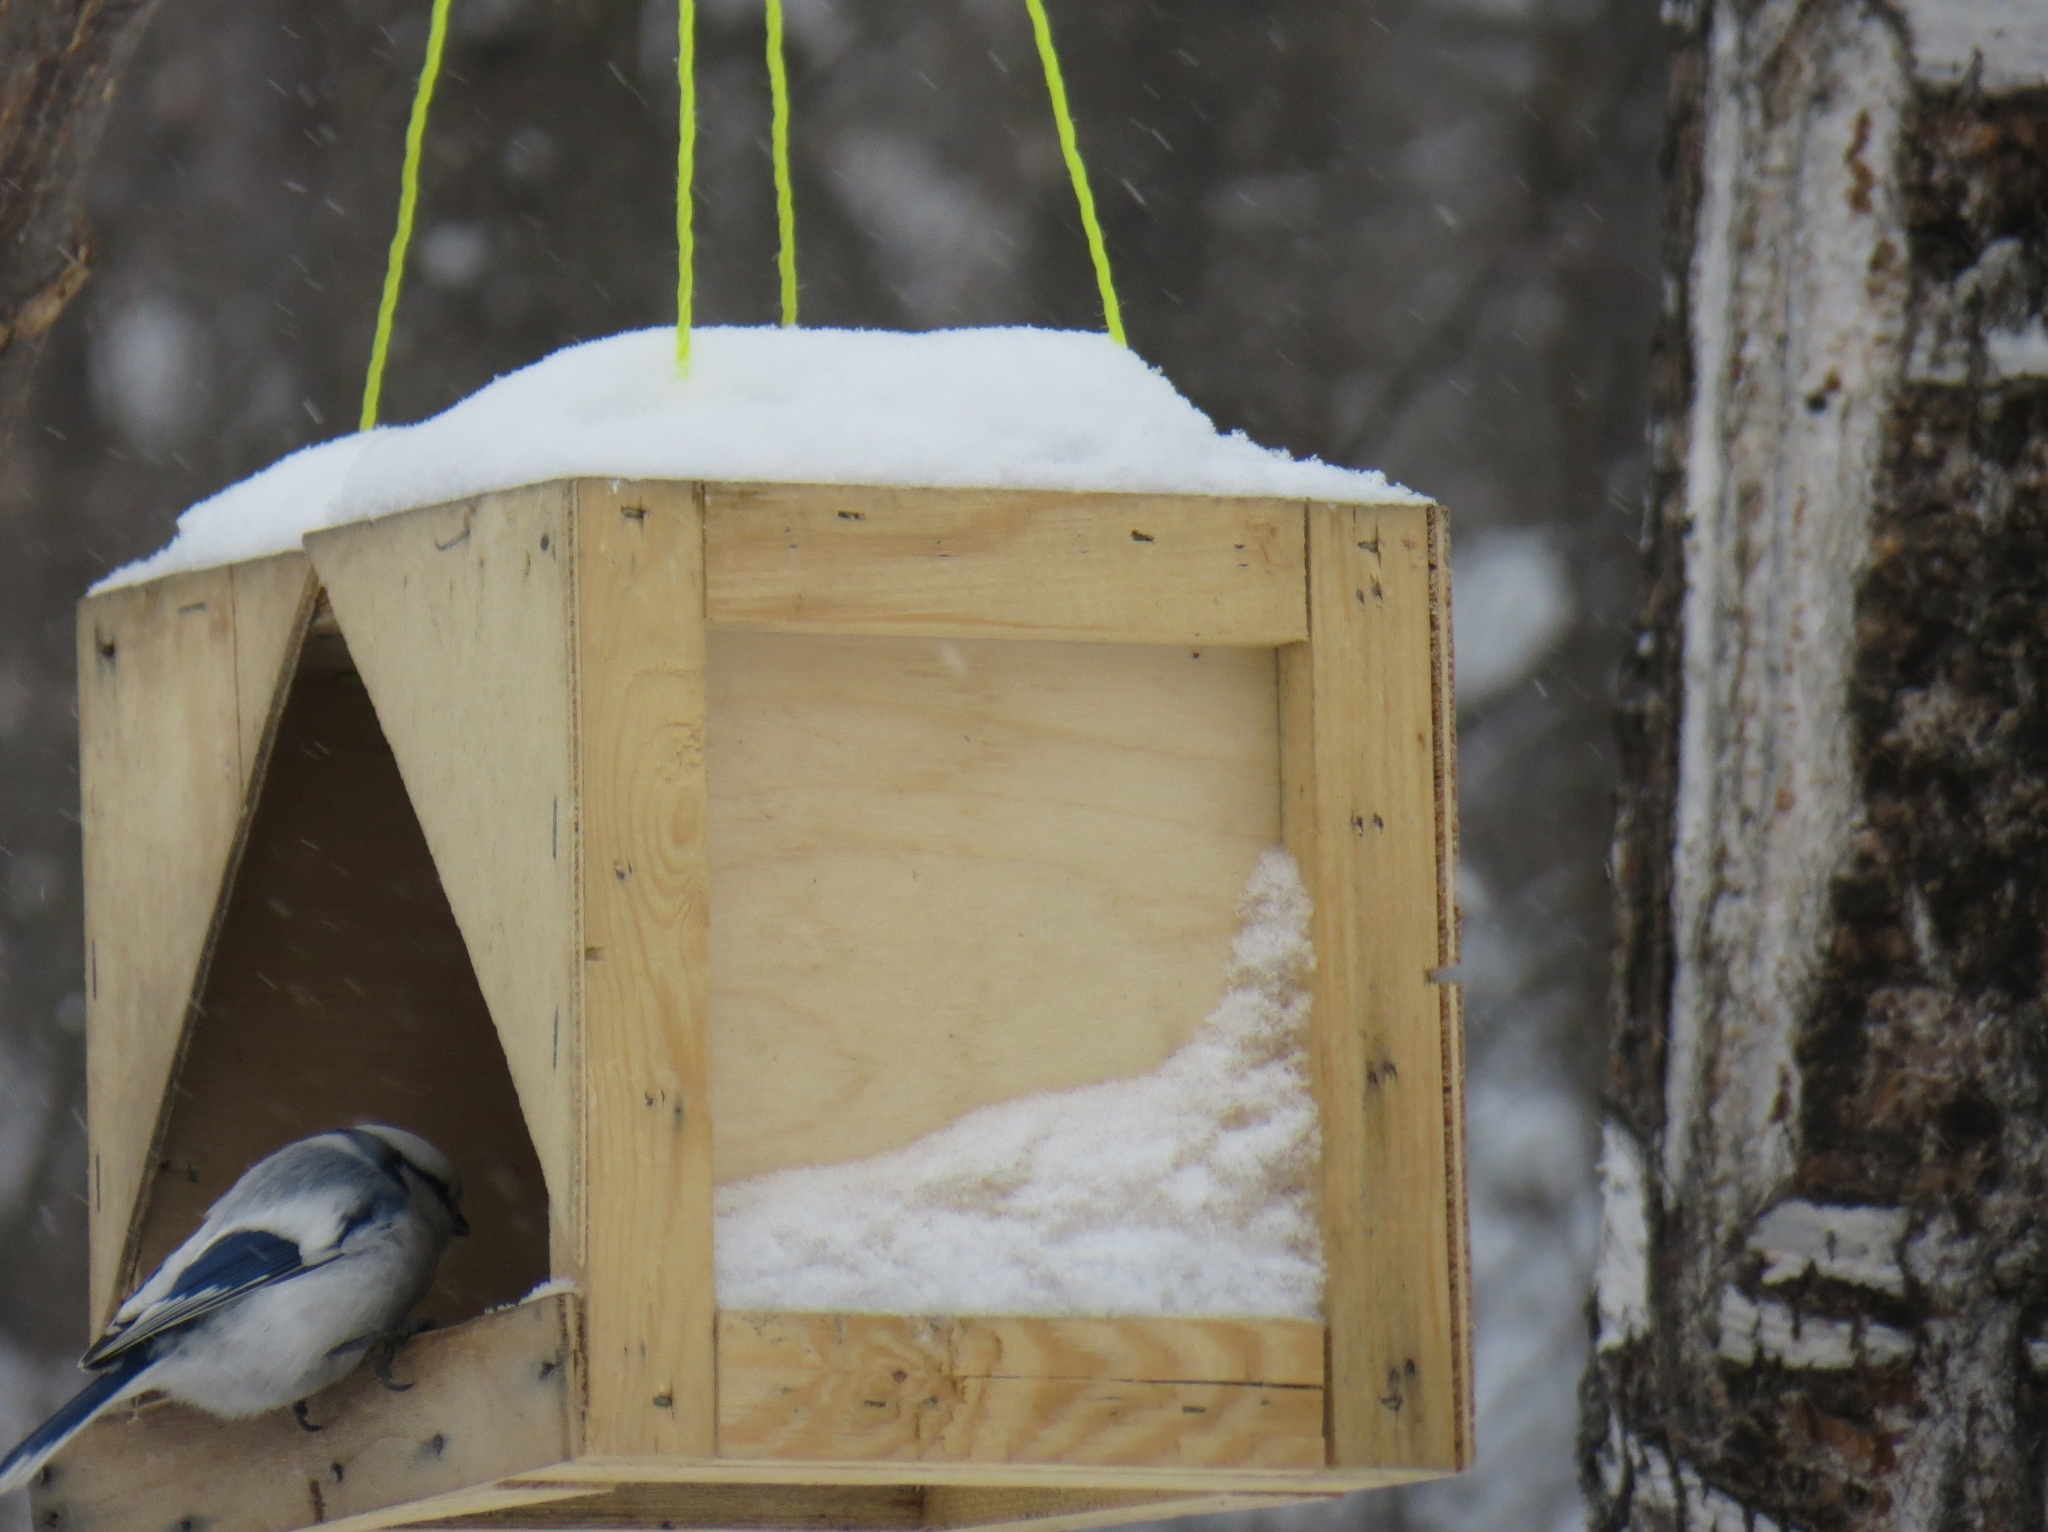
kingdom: Animalia
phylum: Chordata
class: Aves
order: Passeriformes
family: Paridae
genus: Cyanistes
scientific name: Cyanistes cyanus
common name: Azure tit
